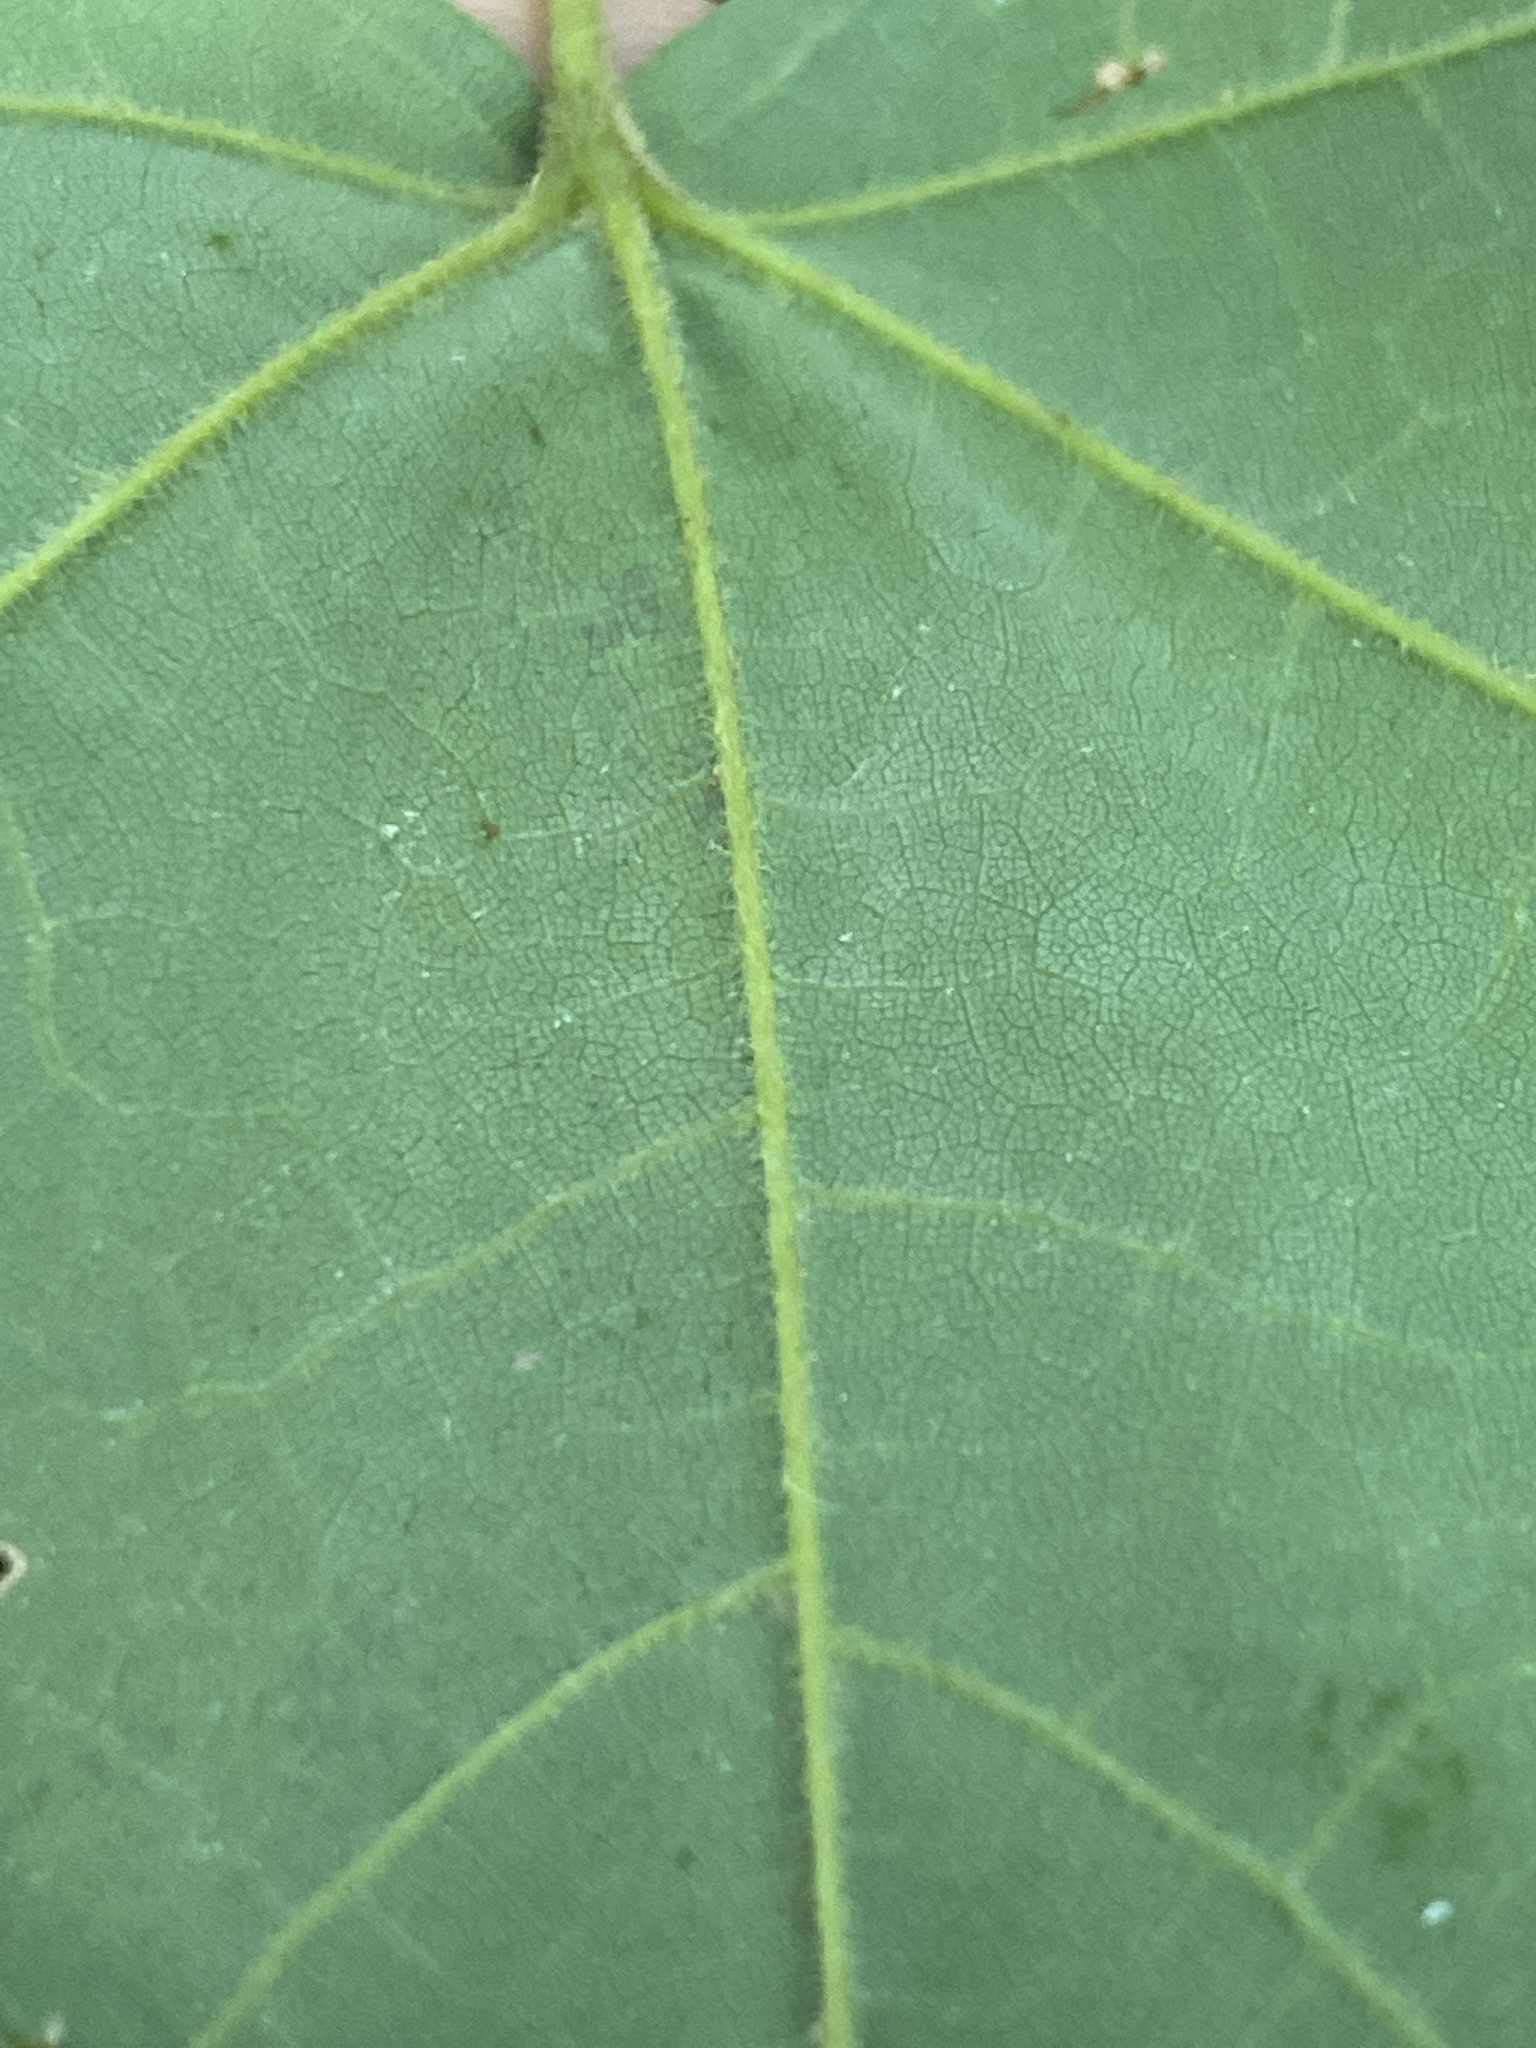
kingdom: Plantae
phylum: Tracheophyta
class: Magnoliopsida
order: Sapindales
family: Sapindaceae
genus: Acer
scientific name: Acer floridanum
